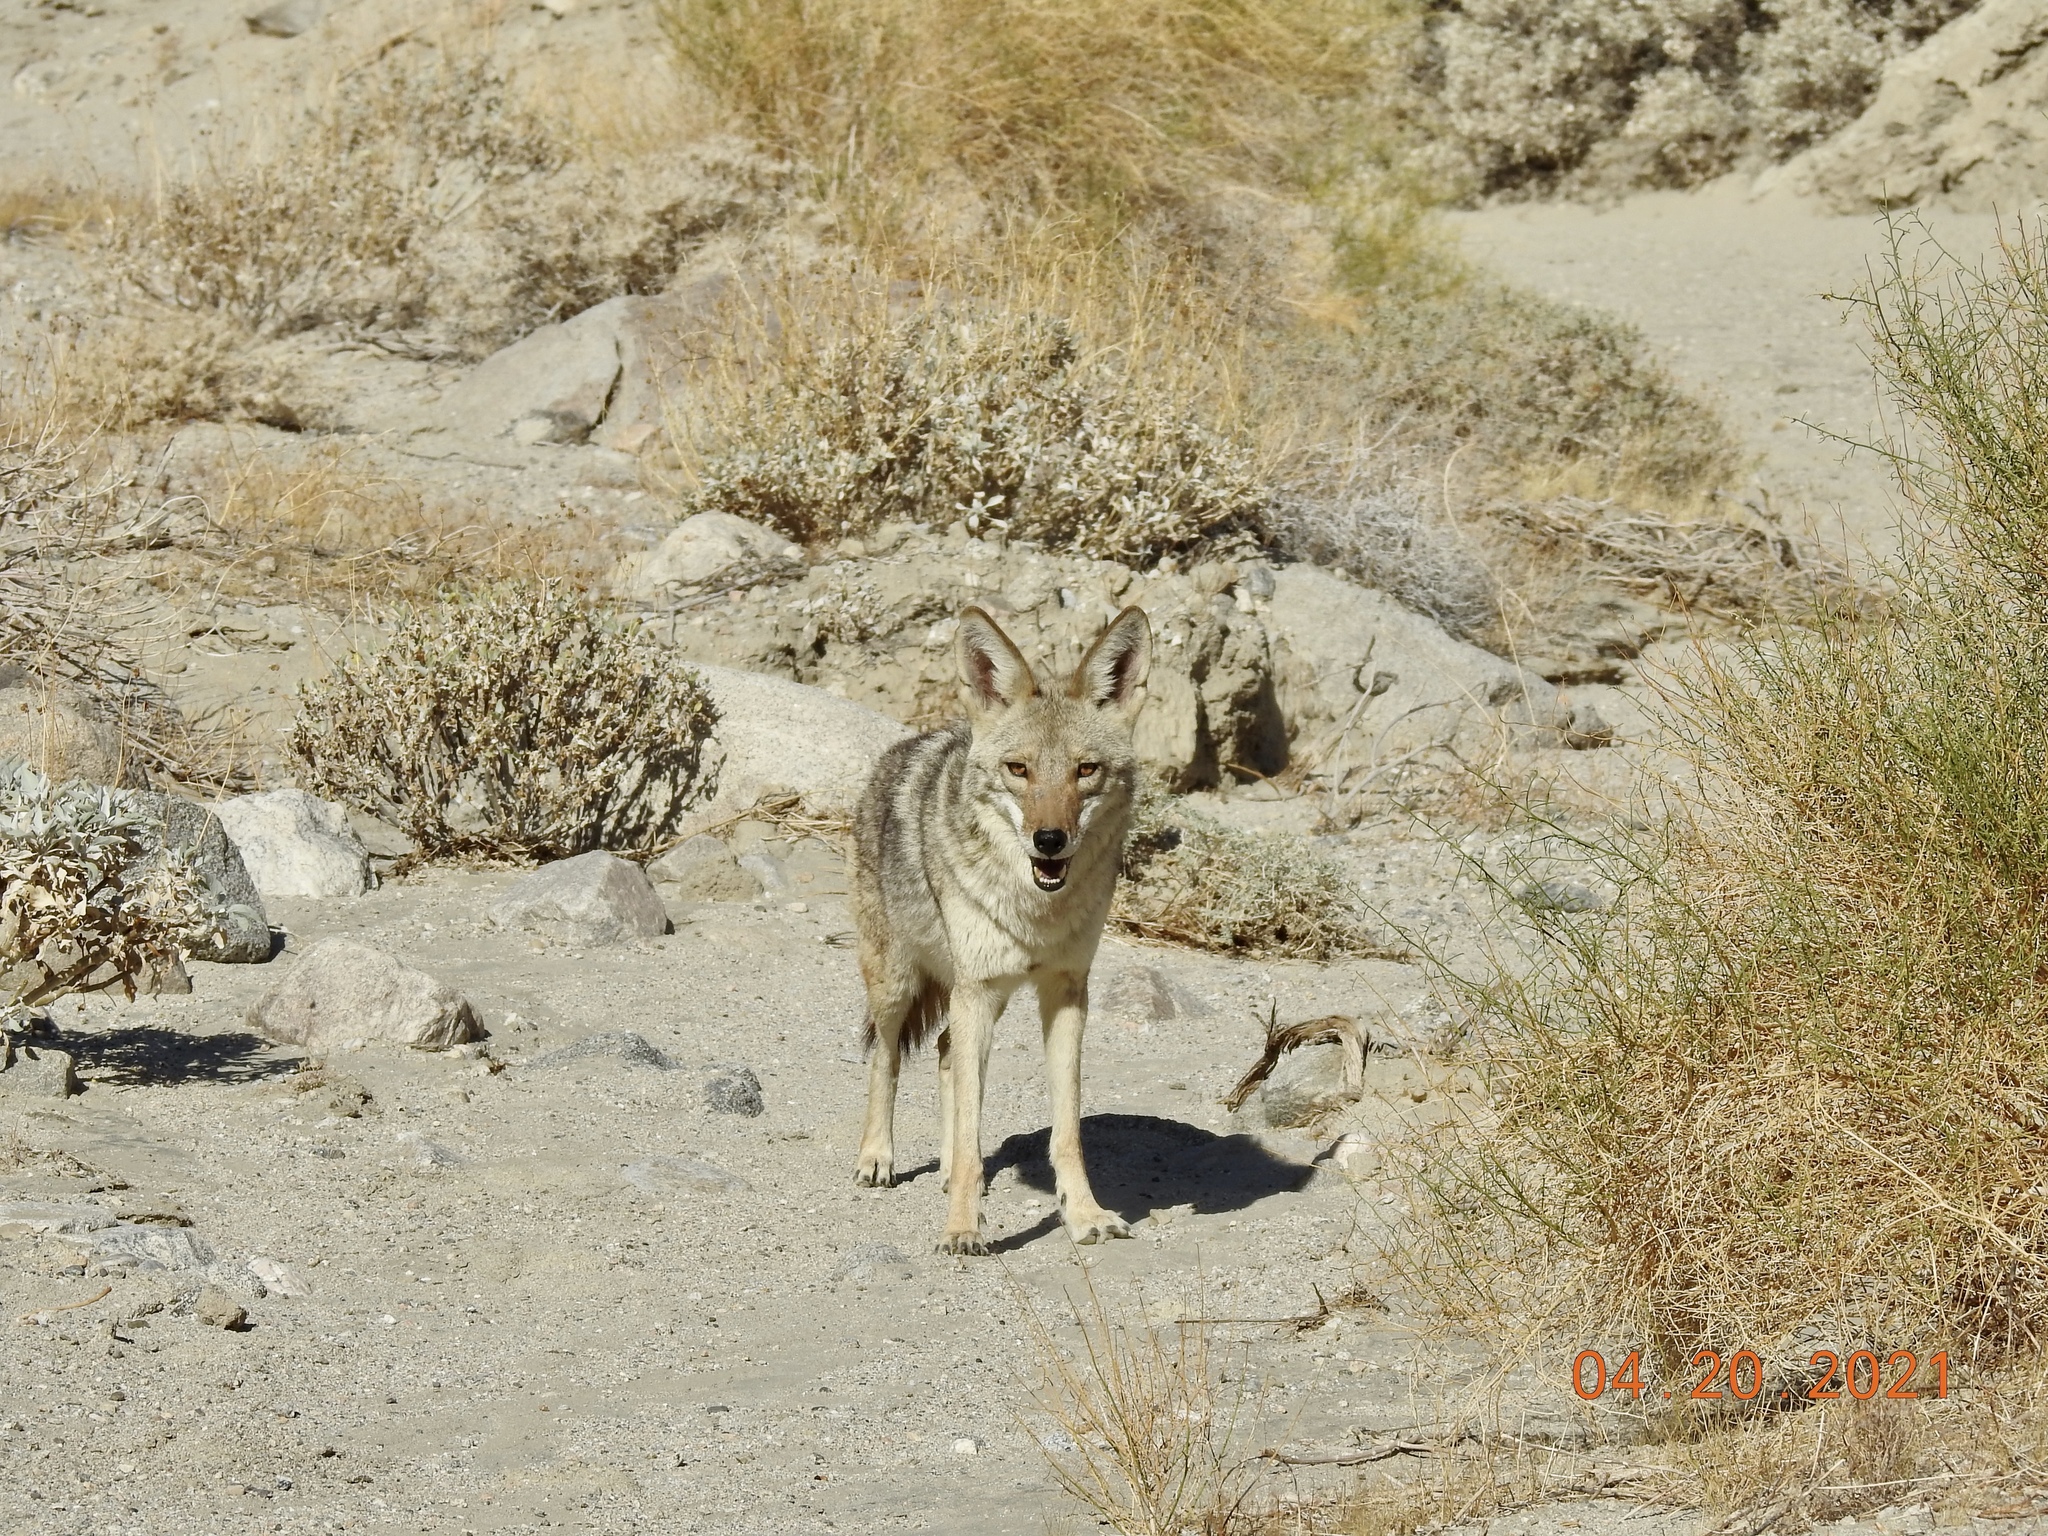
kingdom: Animalia
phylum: Chordata
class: Mammalia
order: Carnivora
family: Canidae
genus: Canis
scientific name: Canis latrans
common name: Coyote
